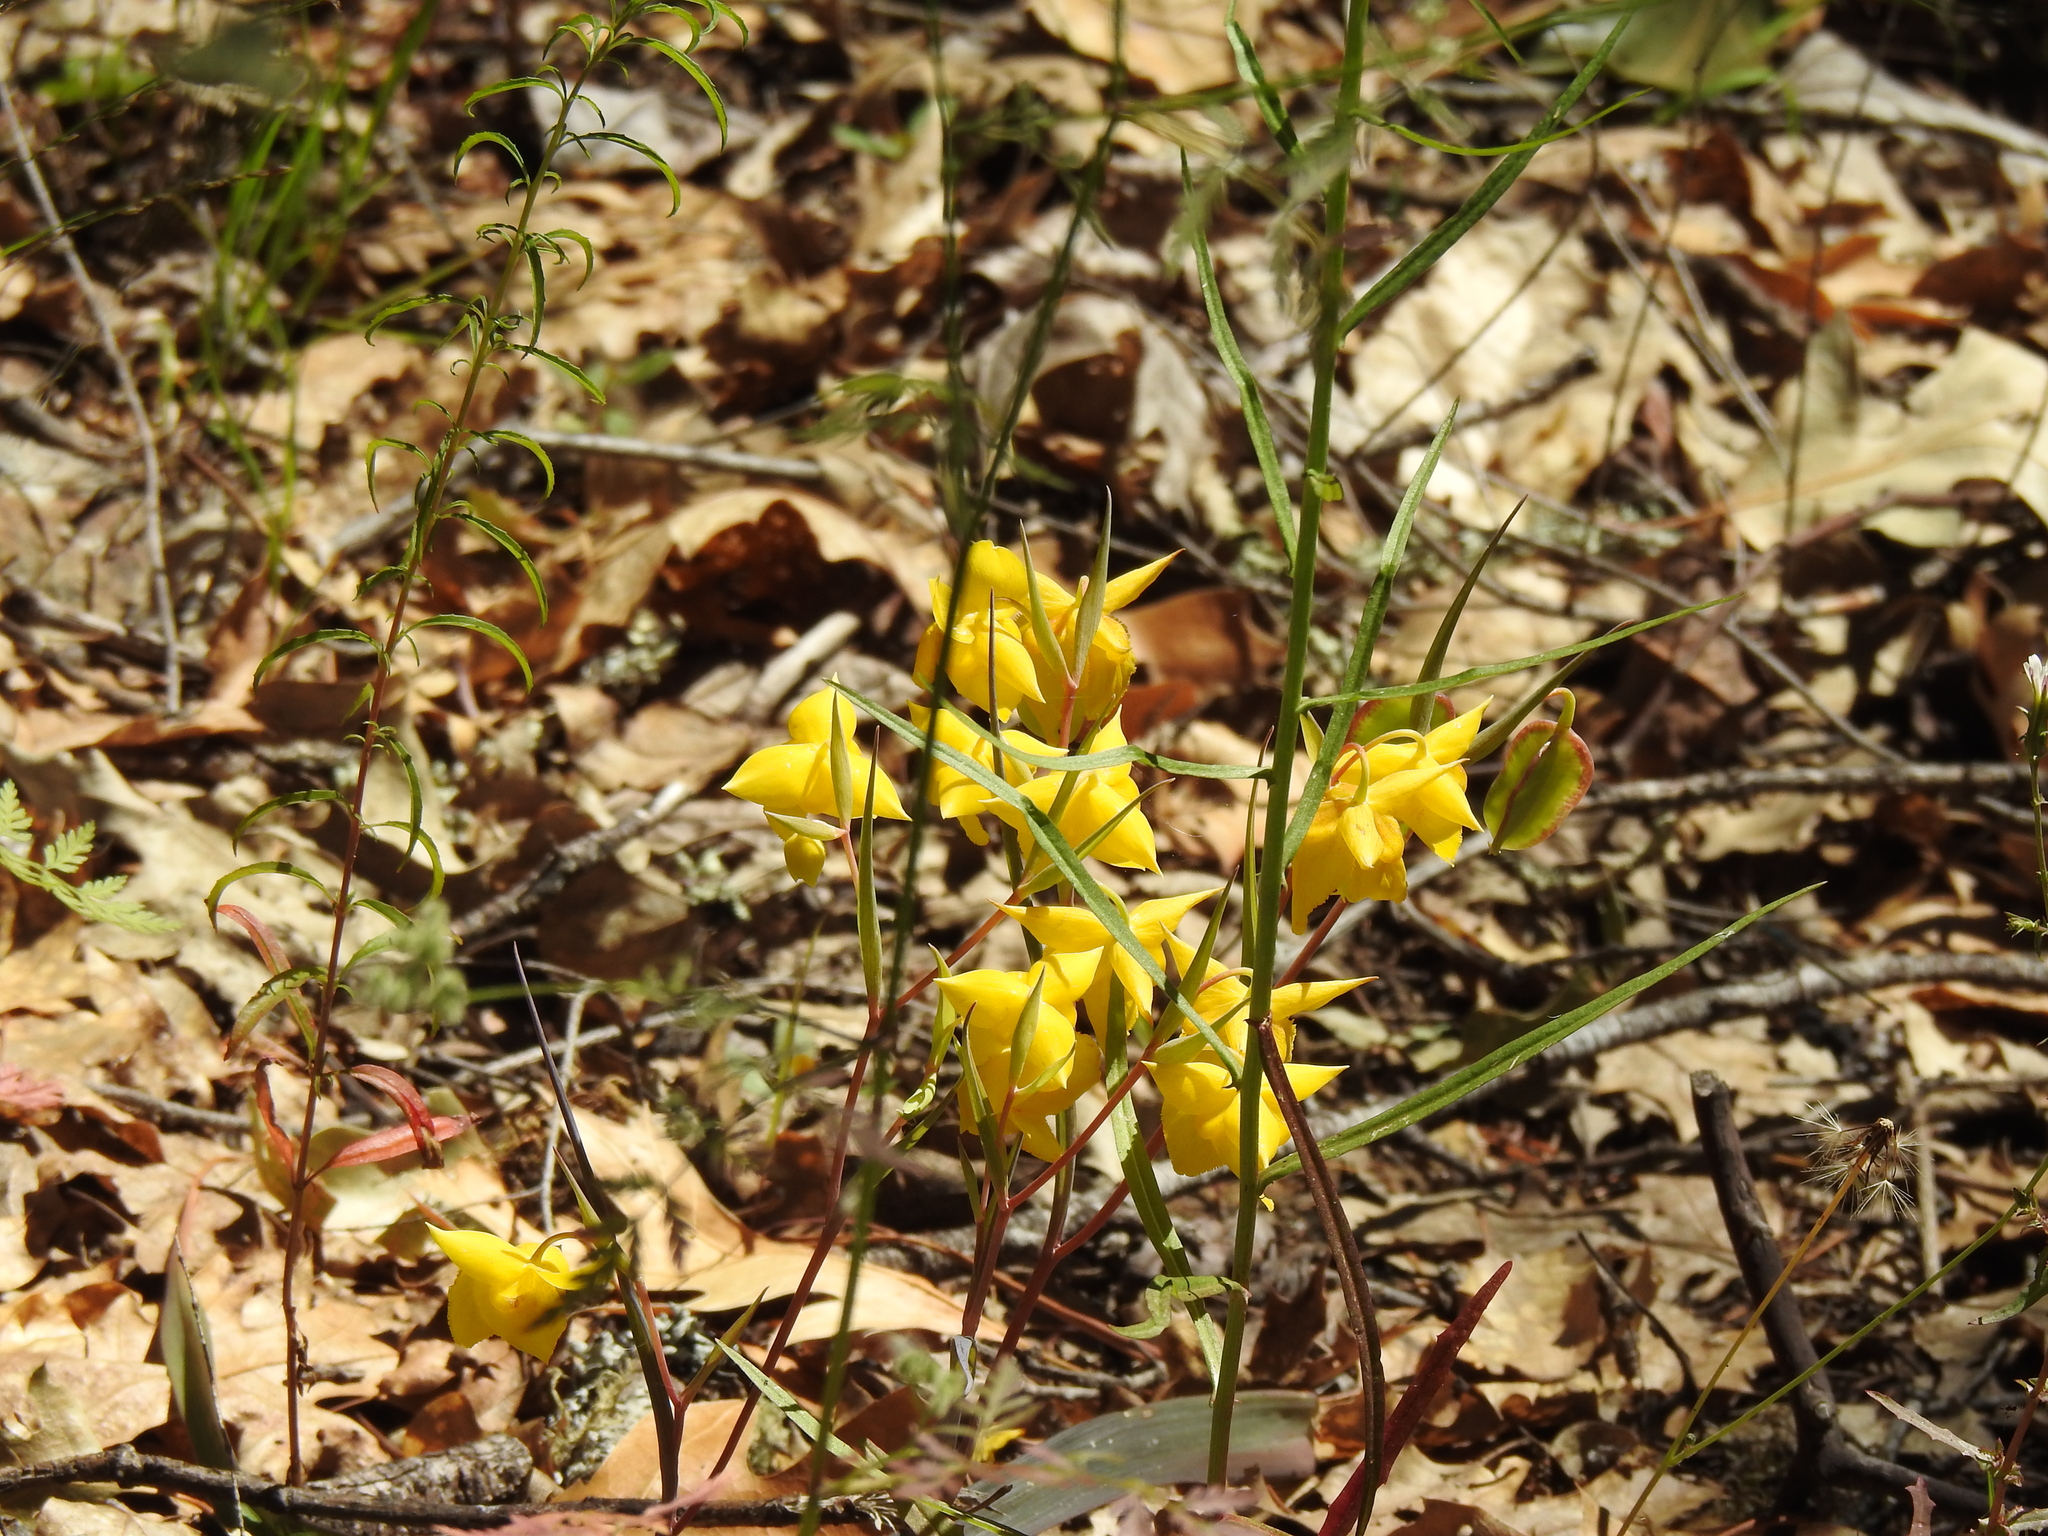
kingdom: Plantae
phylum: Tracheophyta
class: Liliopsida
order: Liliales
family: Liliaceae
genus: Calochortus
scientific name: Calochortus amabilis
